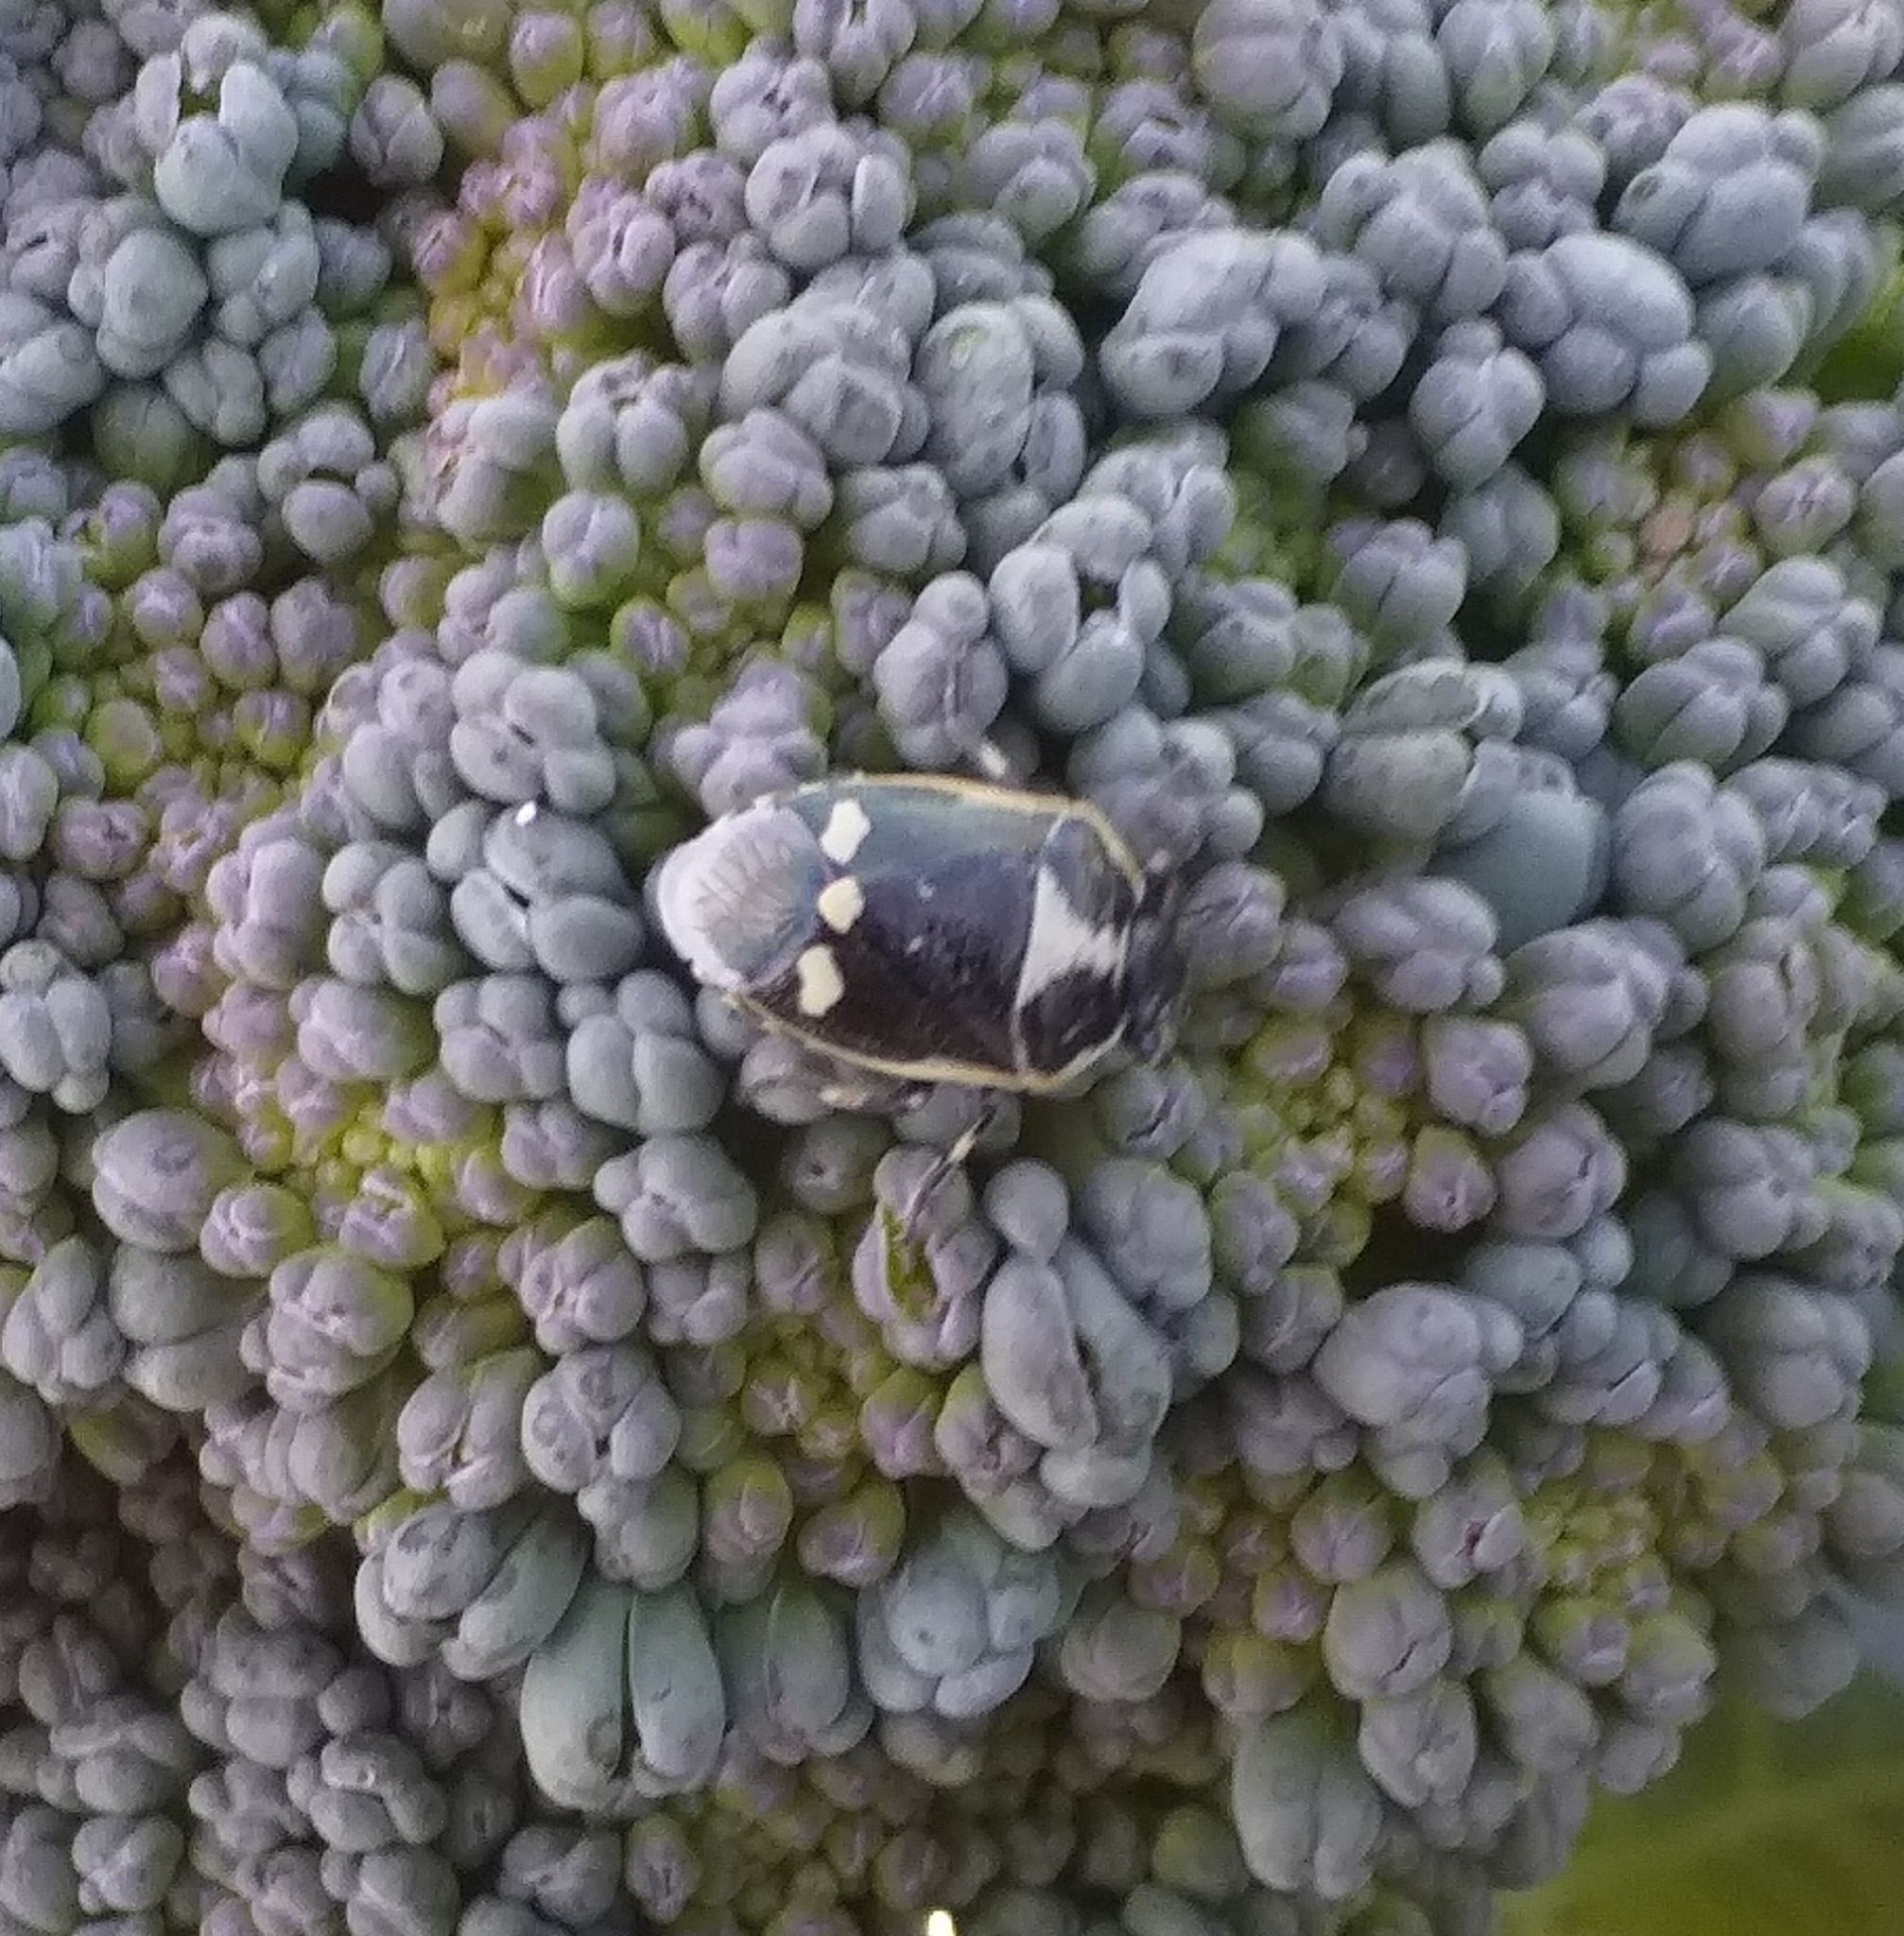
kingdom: Animalia
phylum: Arthropoda
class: Insecta
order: Hemiptera
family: Pentatomidae
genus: Eurydema
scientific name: Eurydema oleracea
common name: Cabbage bug
